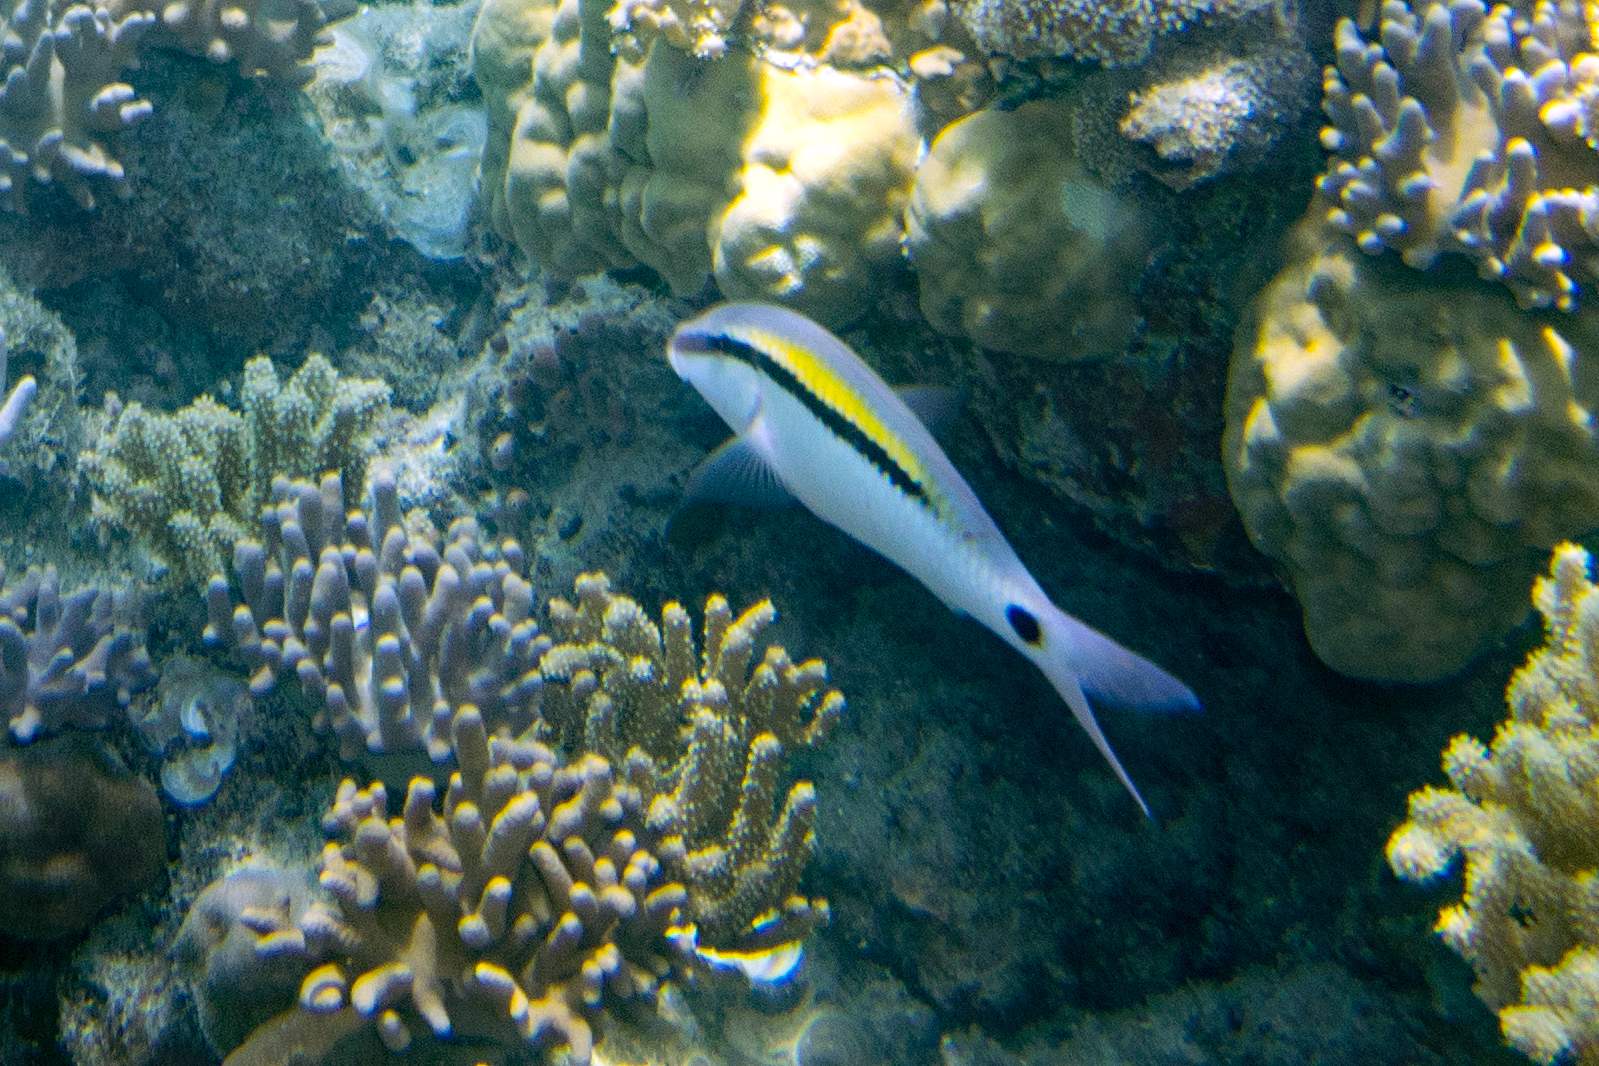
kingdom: Animalia
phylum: Chordata
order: Perciformes
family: Mullidae
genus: Parupeneus
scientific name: Parupeneus barberinus
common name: Dash-and-dot goatfish
